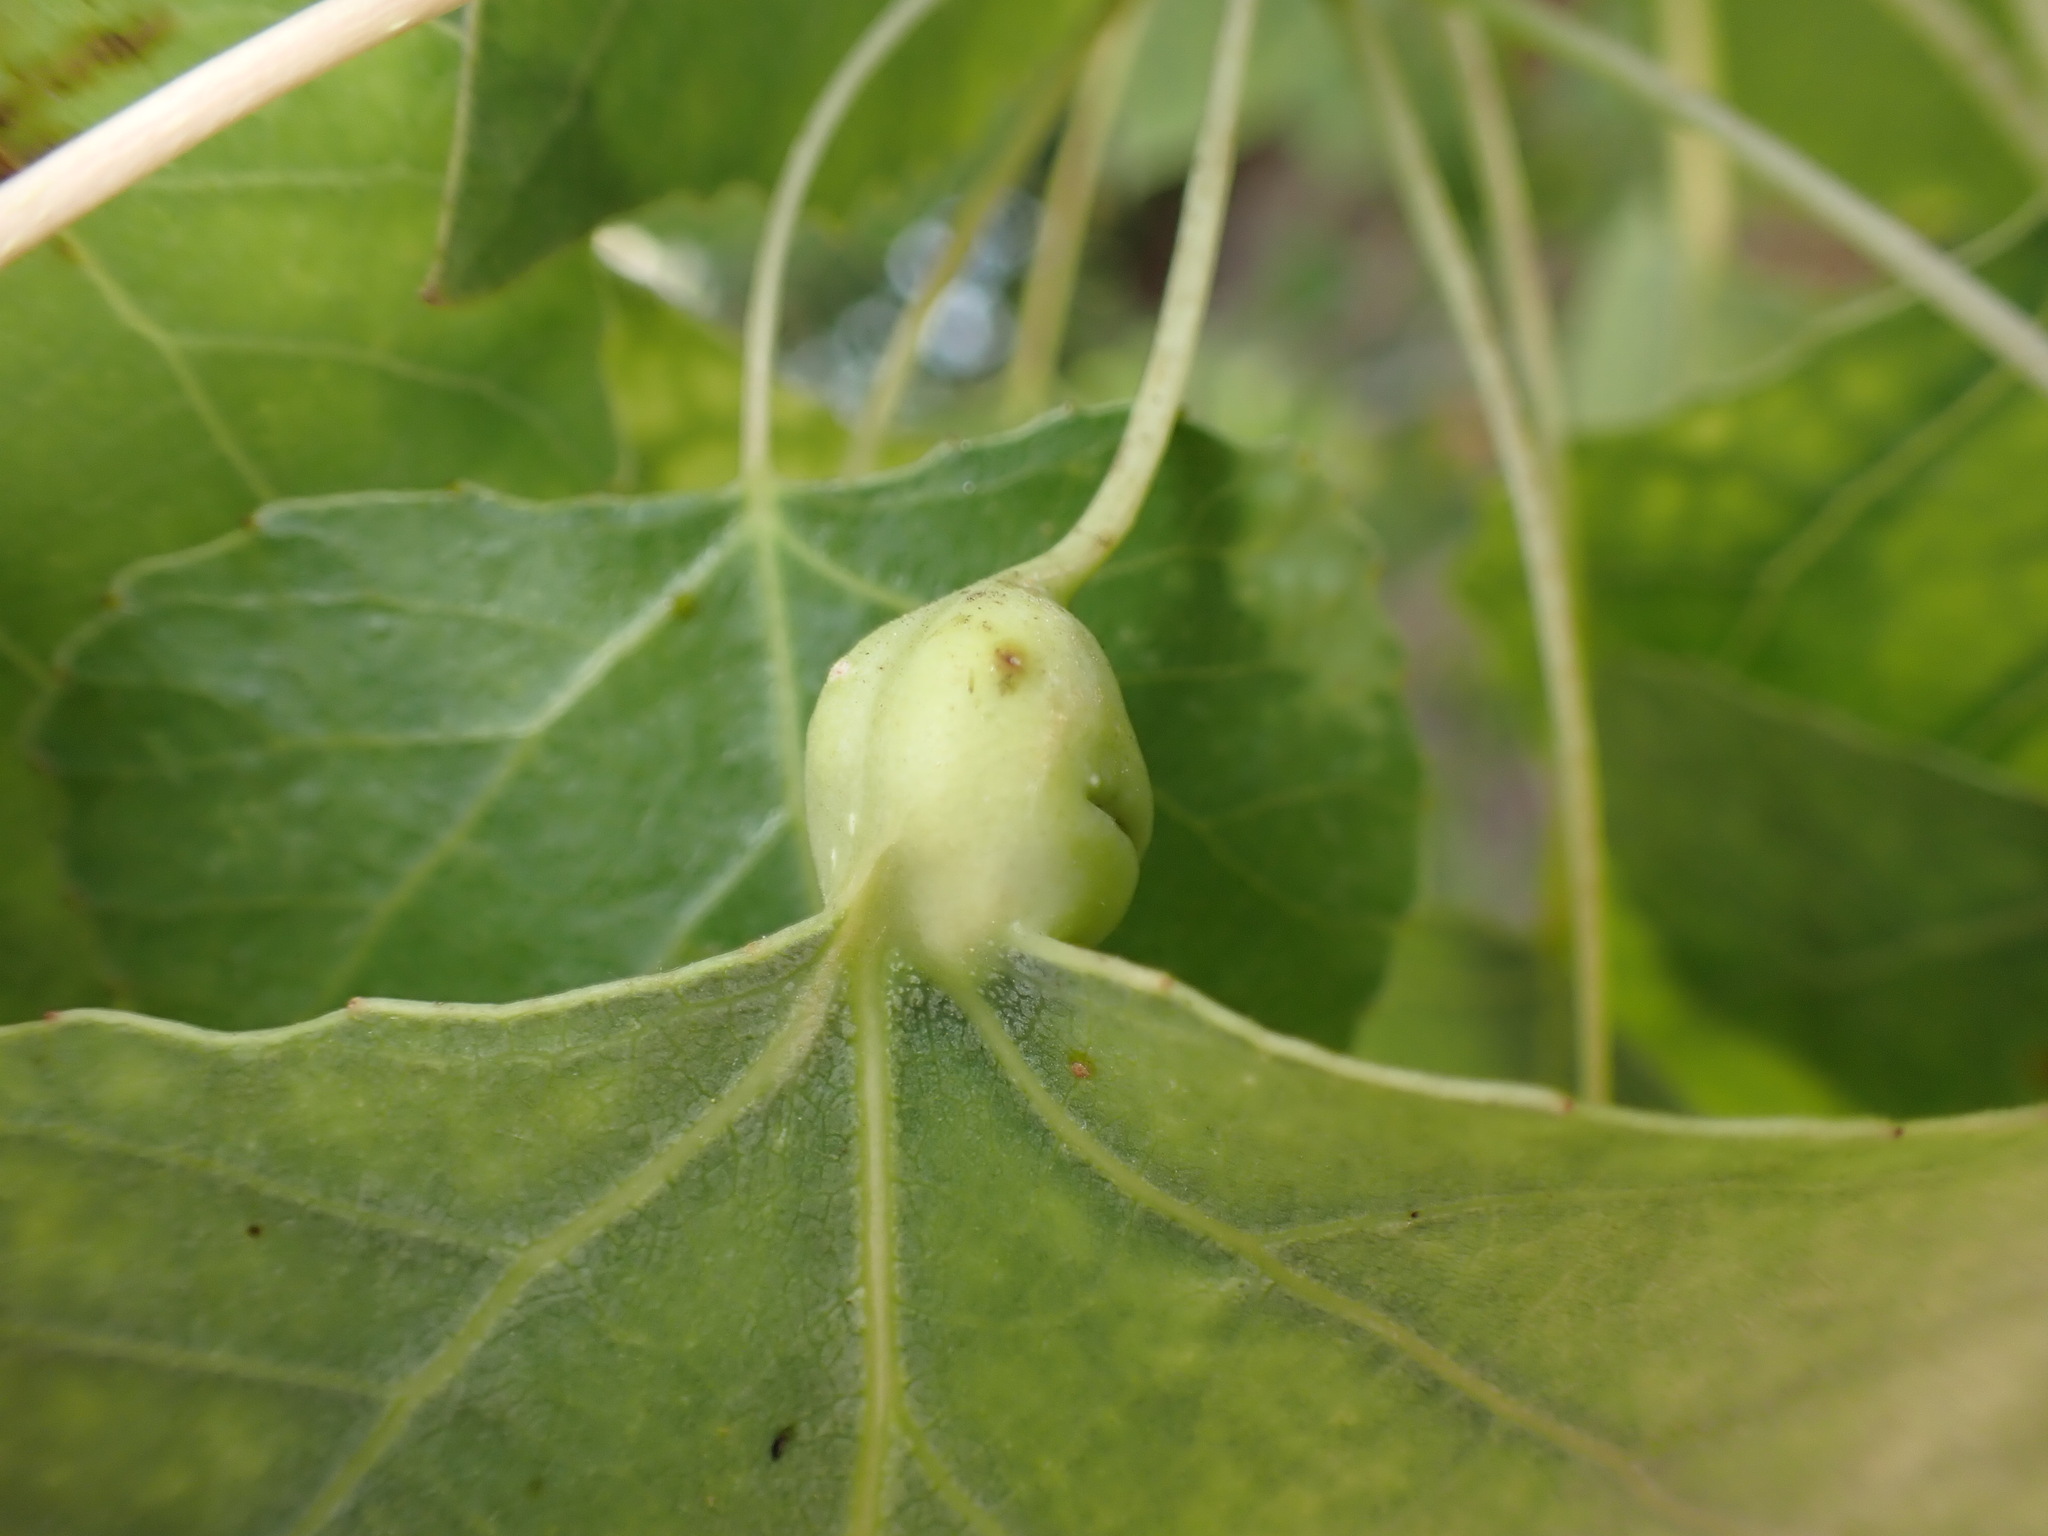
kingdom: Animalia
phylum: Arthropoda
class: Insecta
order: Hemiptera
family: Aphididae
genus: Pemphigus
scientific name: Pemphigus obesinymphae
